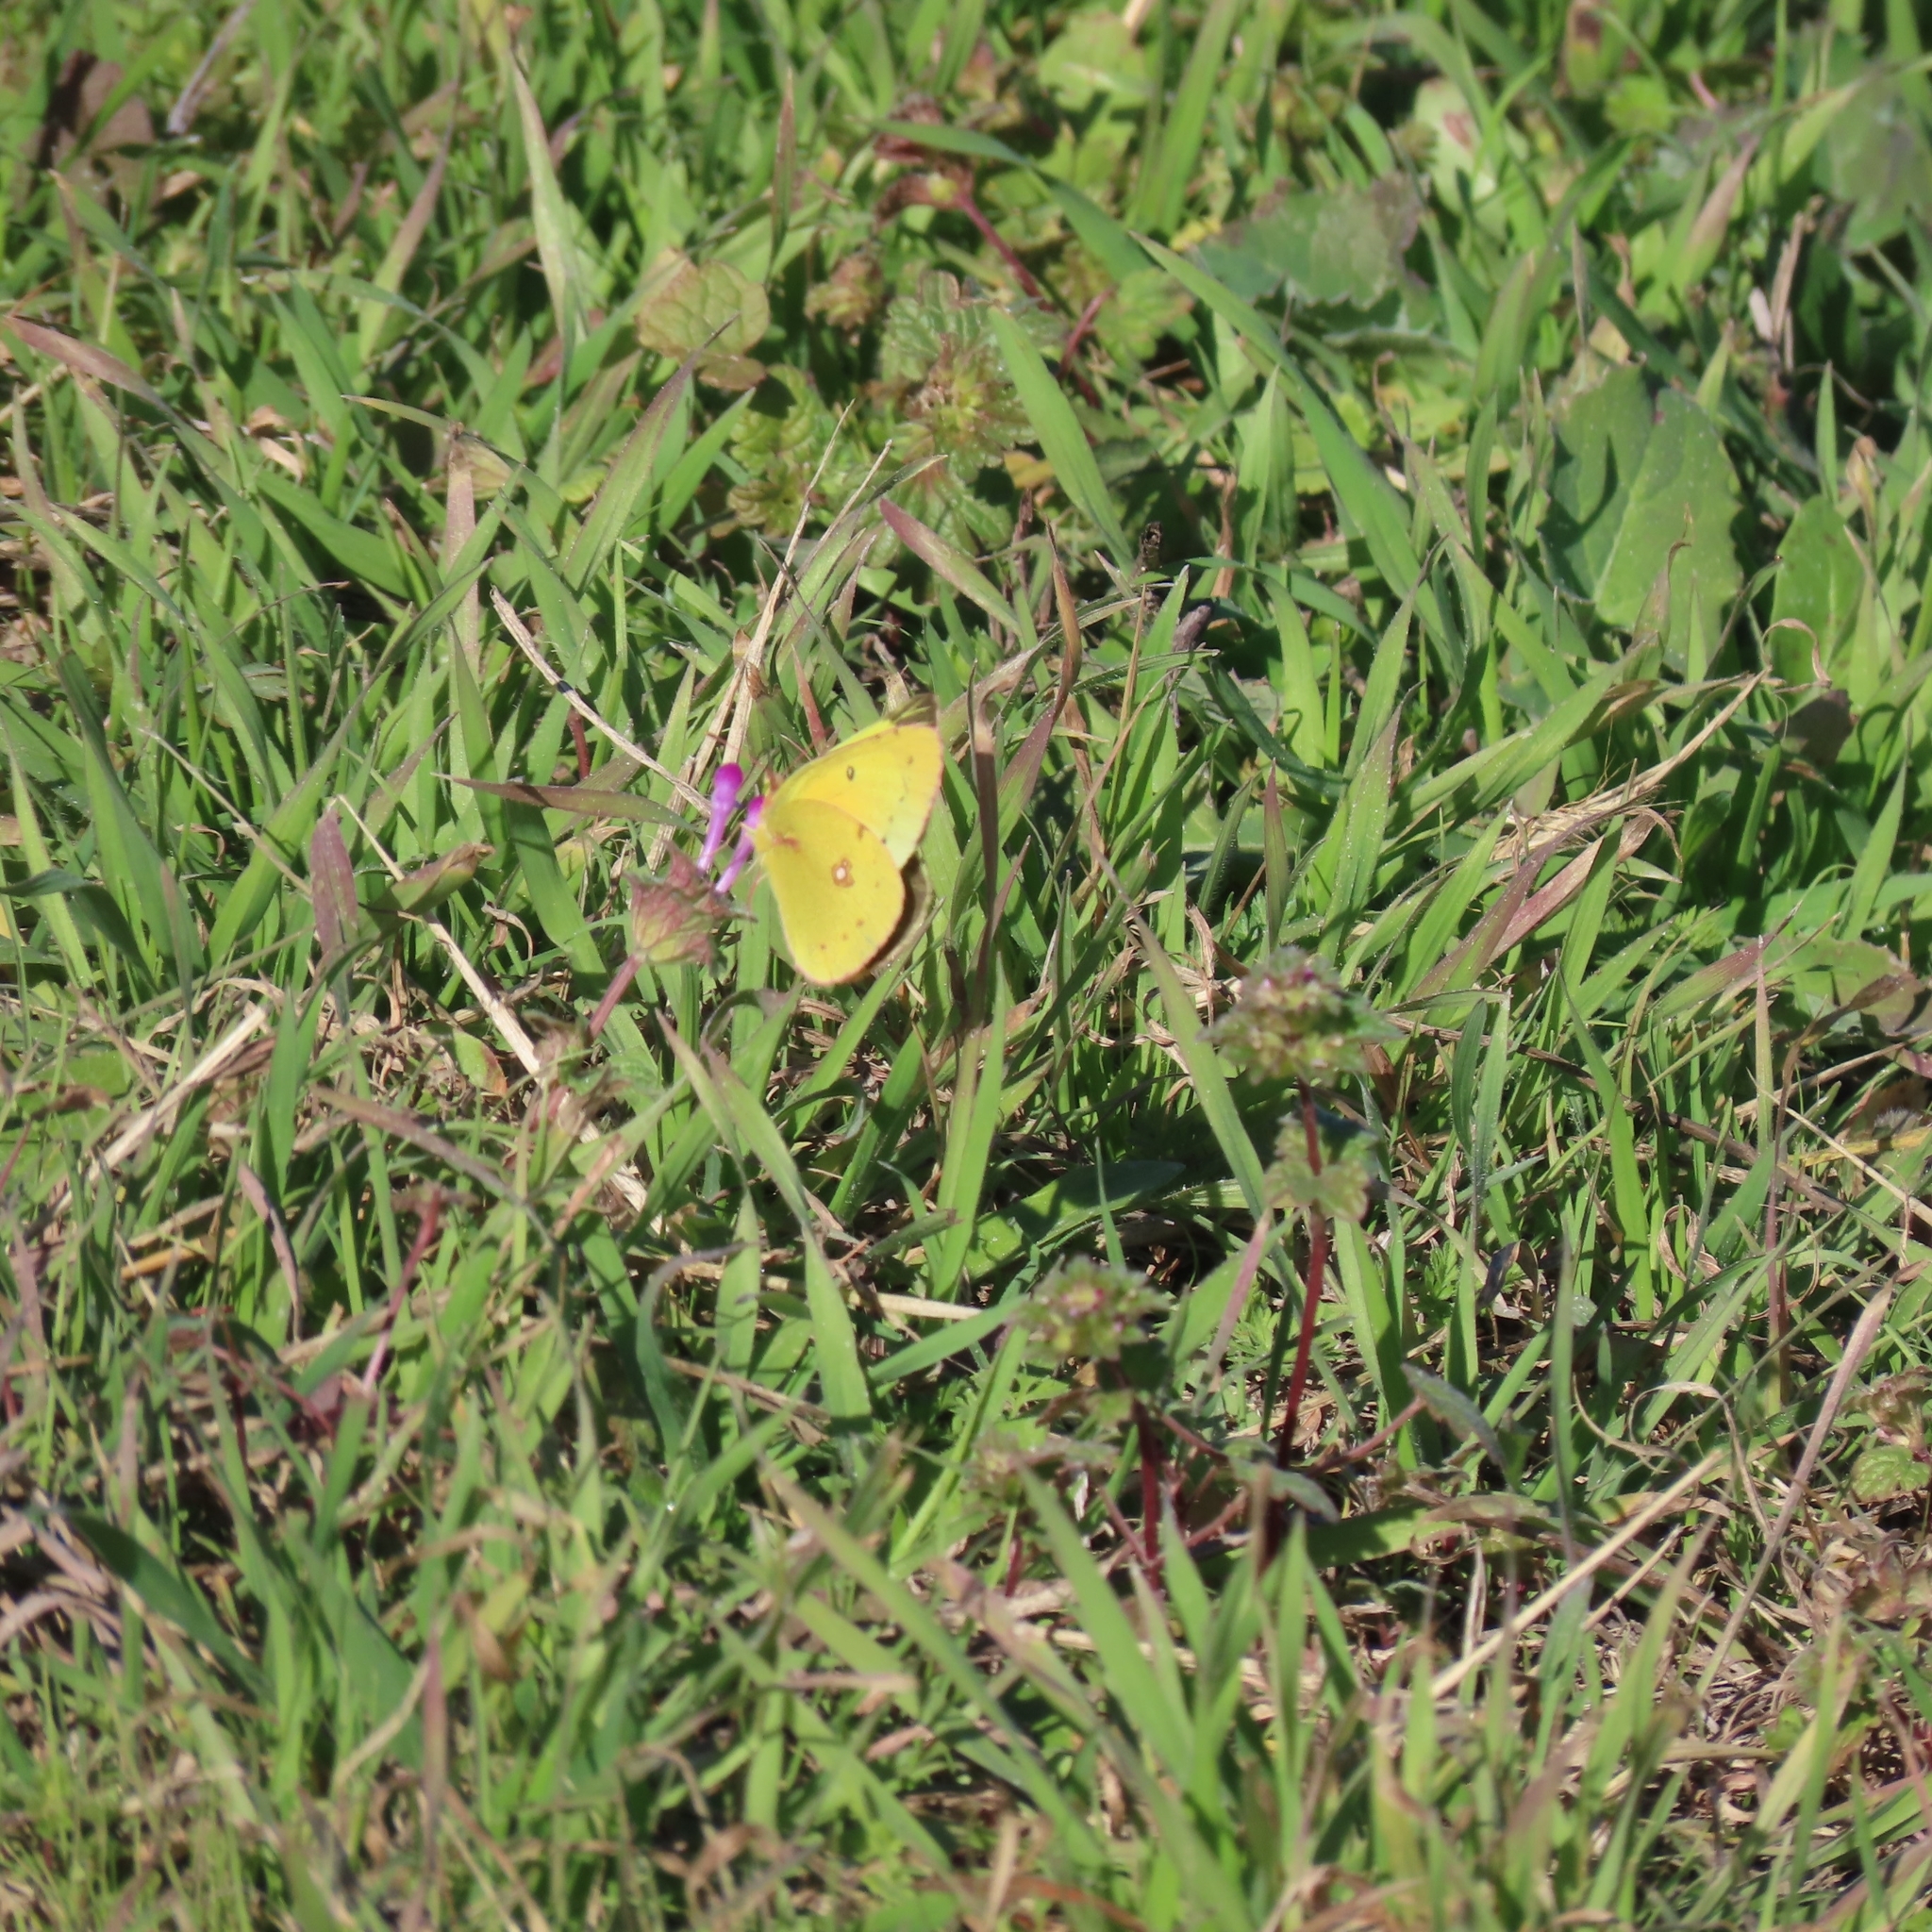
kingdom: Animalia
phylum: Arthropoda
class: Insecta
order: Lepidoptera
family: Pieridae
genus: Colias
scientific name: Colias eurytheme
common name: Alfalfa butterfly
